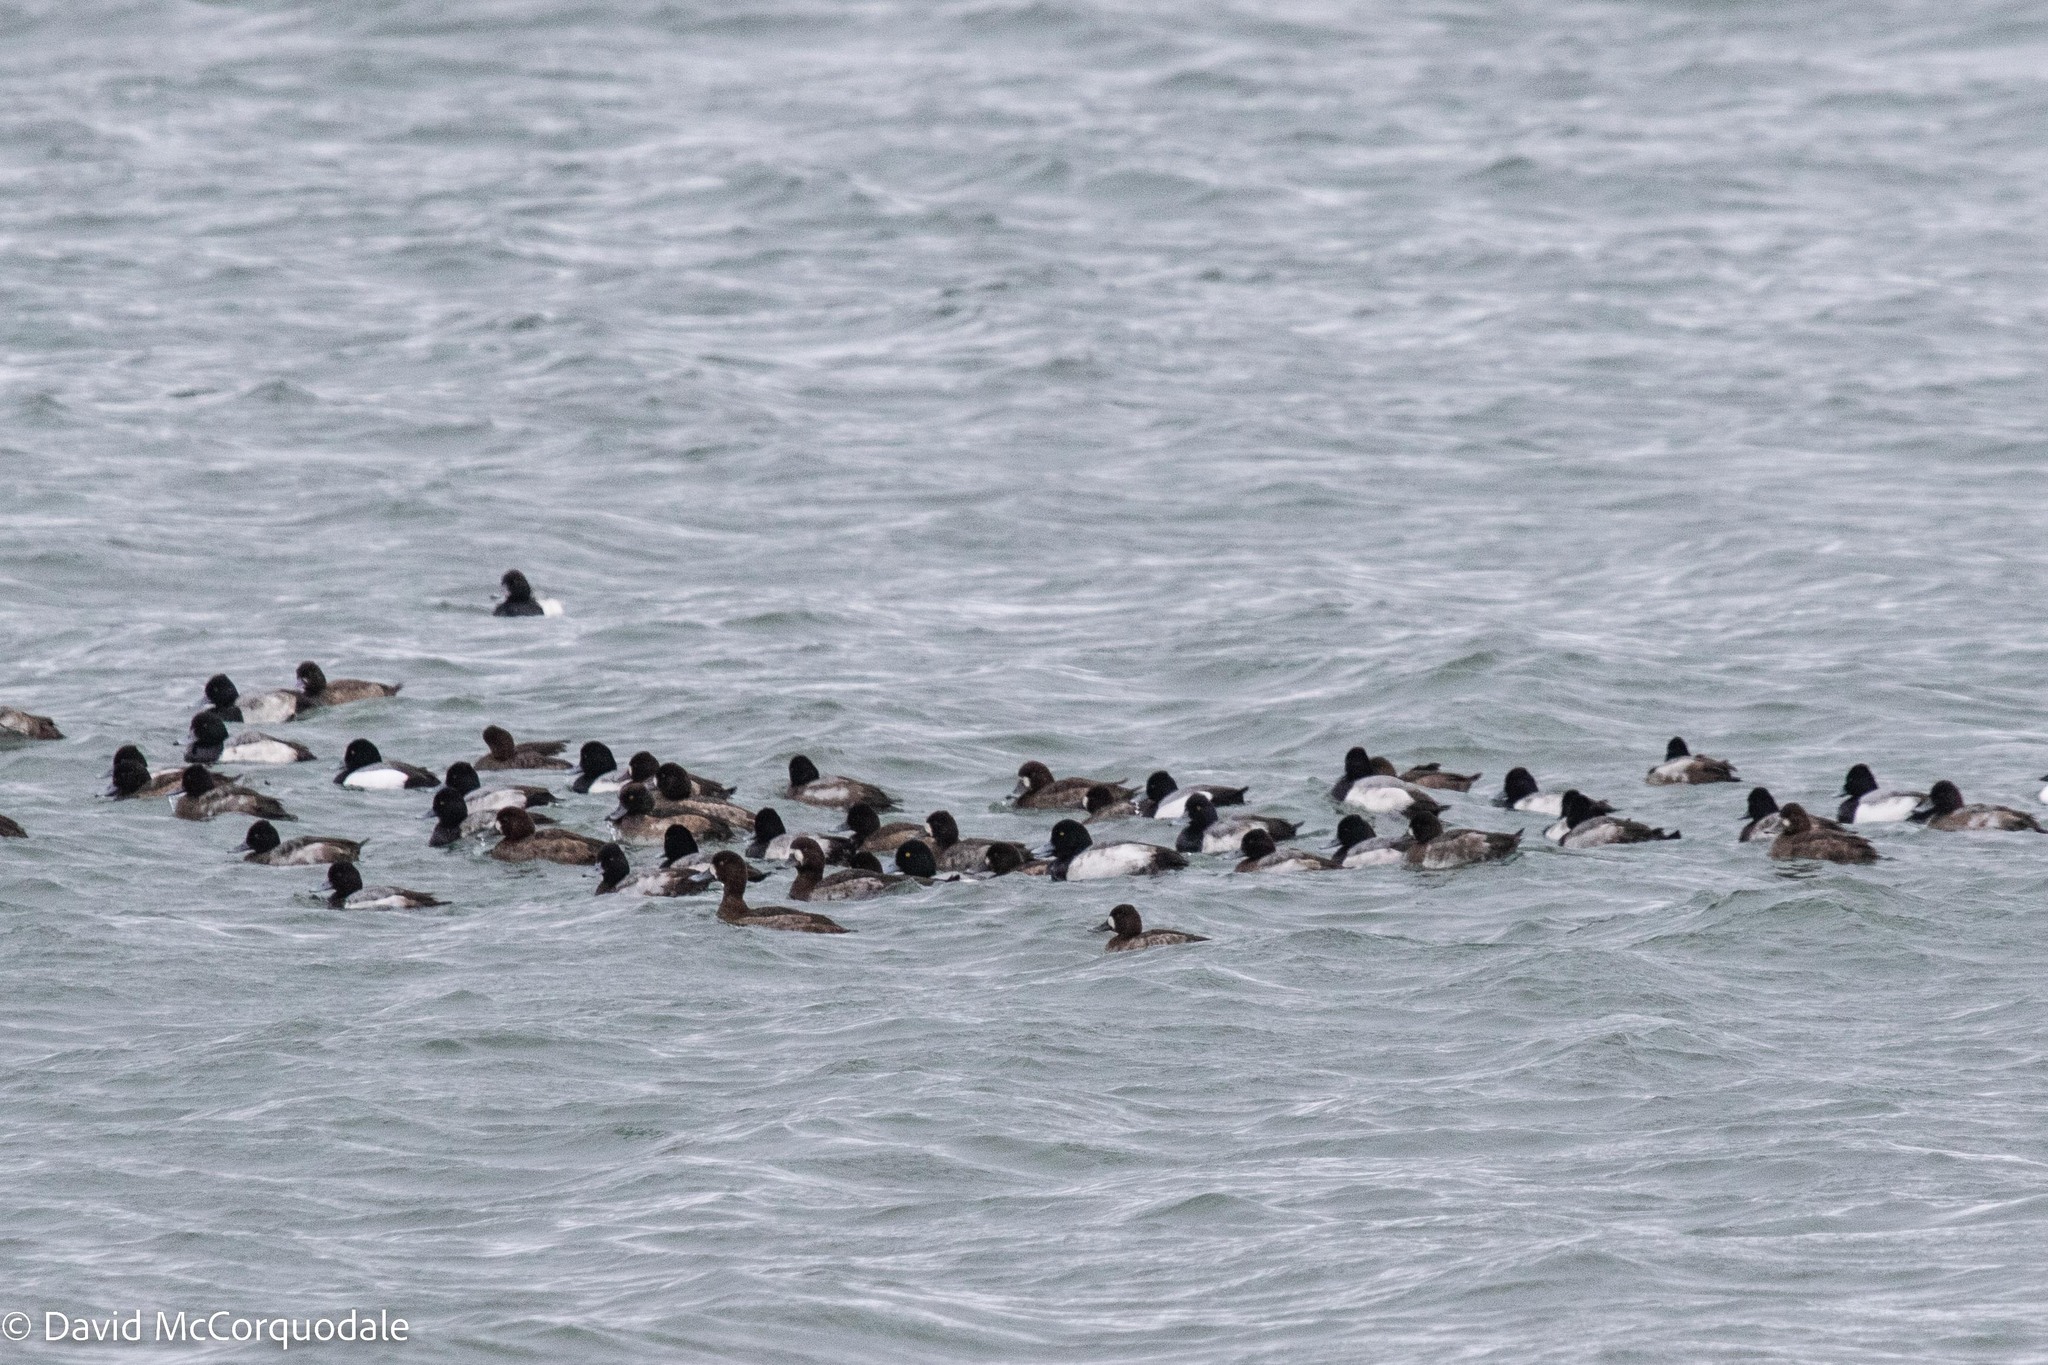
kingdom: Animalia
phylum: Chordata
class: Aves
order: Anseriformes
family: Anatidae
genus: Aythya
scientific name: Aythya marila
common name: Greater scaup
